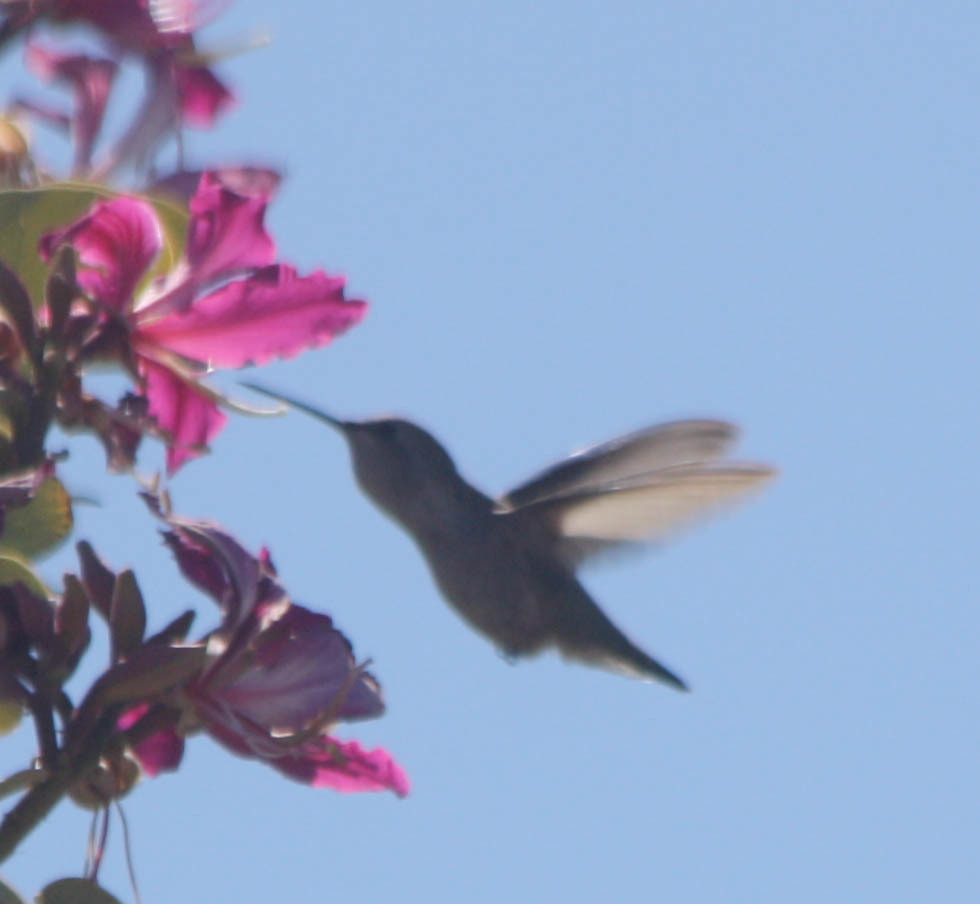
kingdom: Animalia
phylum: Chordata
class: Aves
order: Apodiformes
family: Trochilidae
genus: Calypte
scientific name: Calypte costae
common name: Costa's hummingbird
